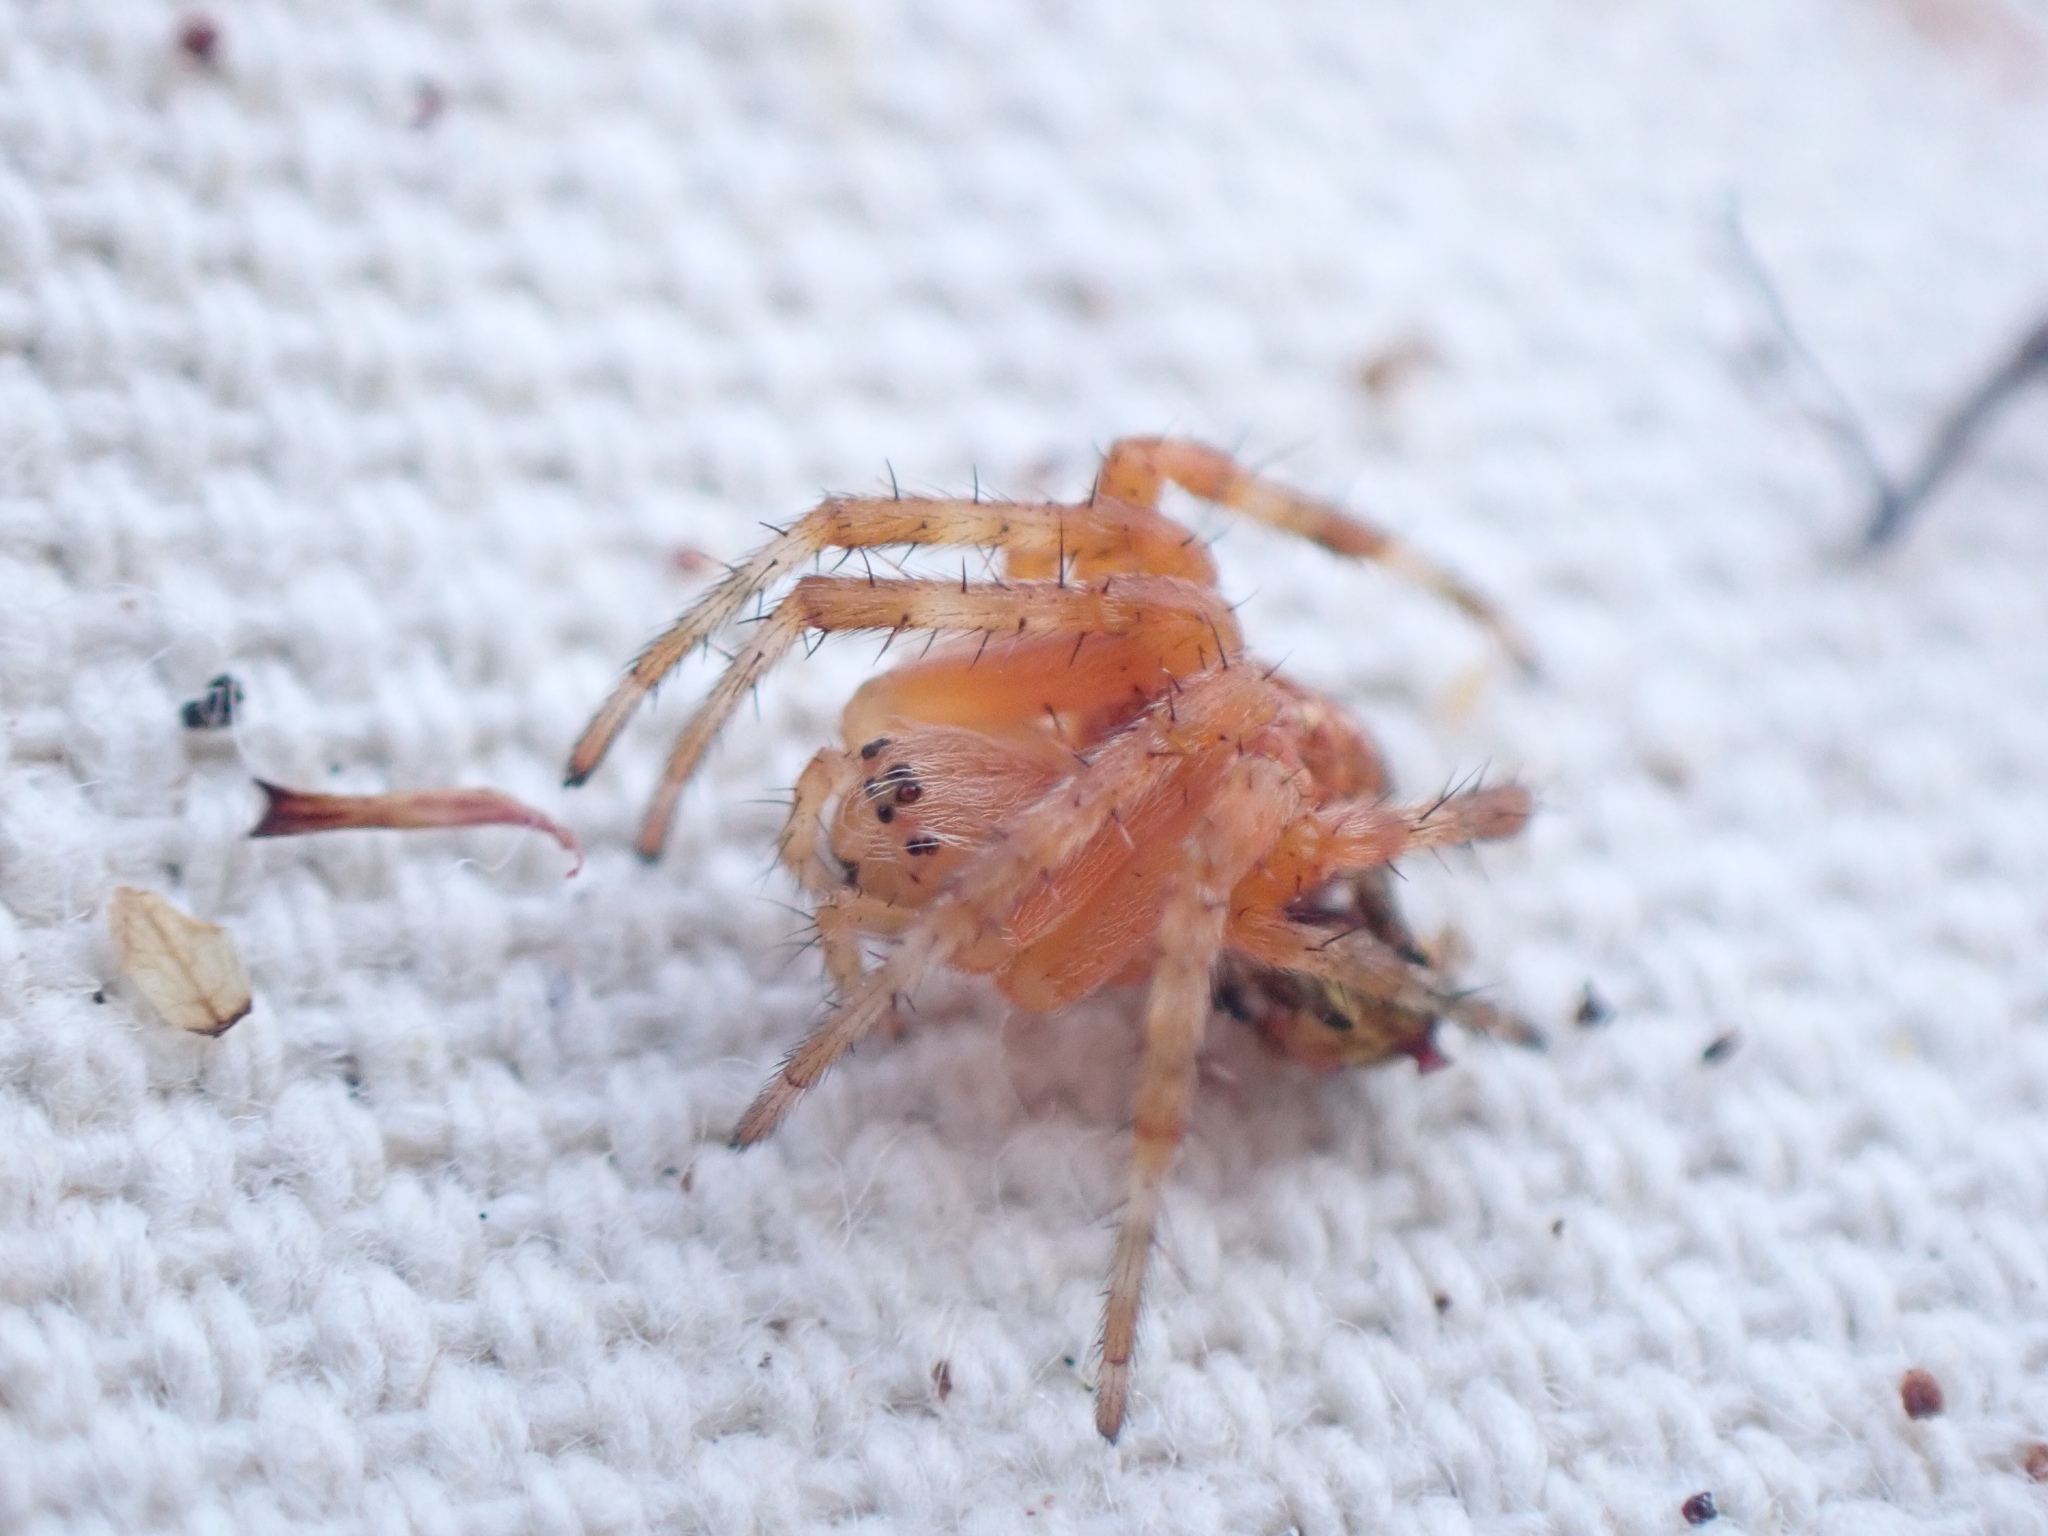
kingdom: Animalia
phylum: Arthropoda
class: Arachnida
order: Araneae
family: Araneidae
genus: Araneus
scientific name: Araneus diadematus
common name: Cross orbweaver
